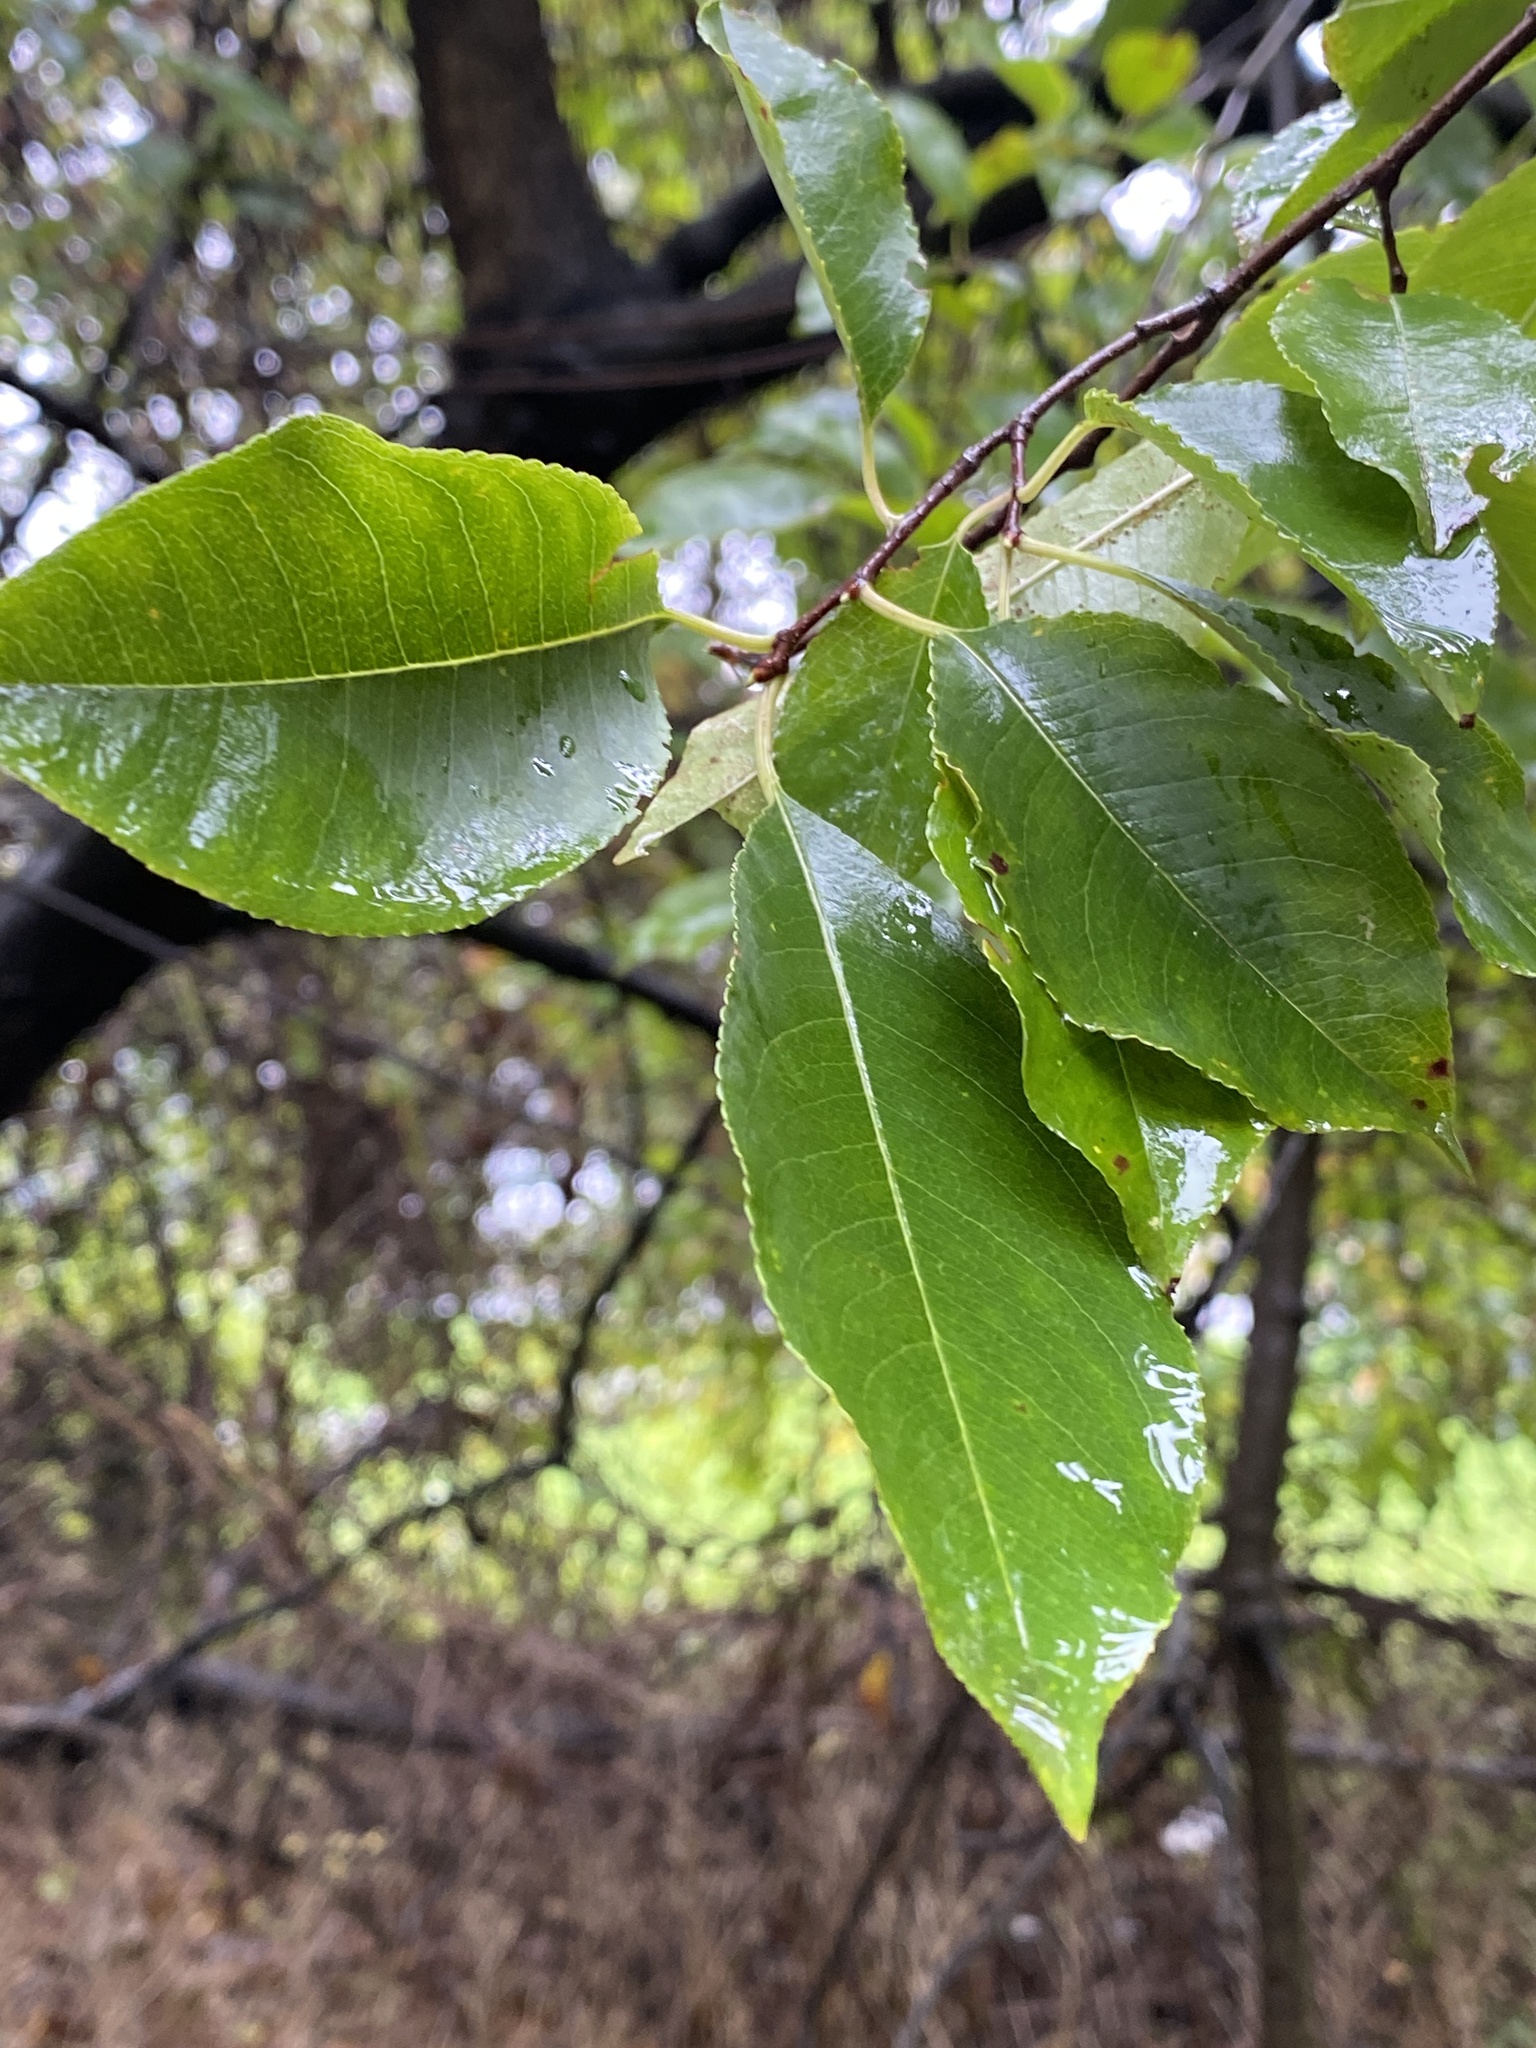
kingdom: Plantae
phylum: Tracheophyta
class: Magnoliopsida
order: Rosales
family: Rosaceae
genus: Prunus
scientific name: Prunus serotina
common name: Black cherry
